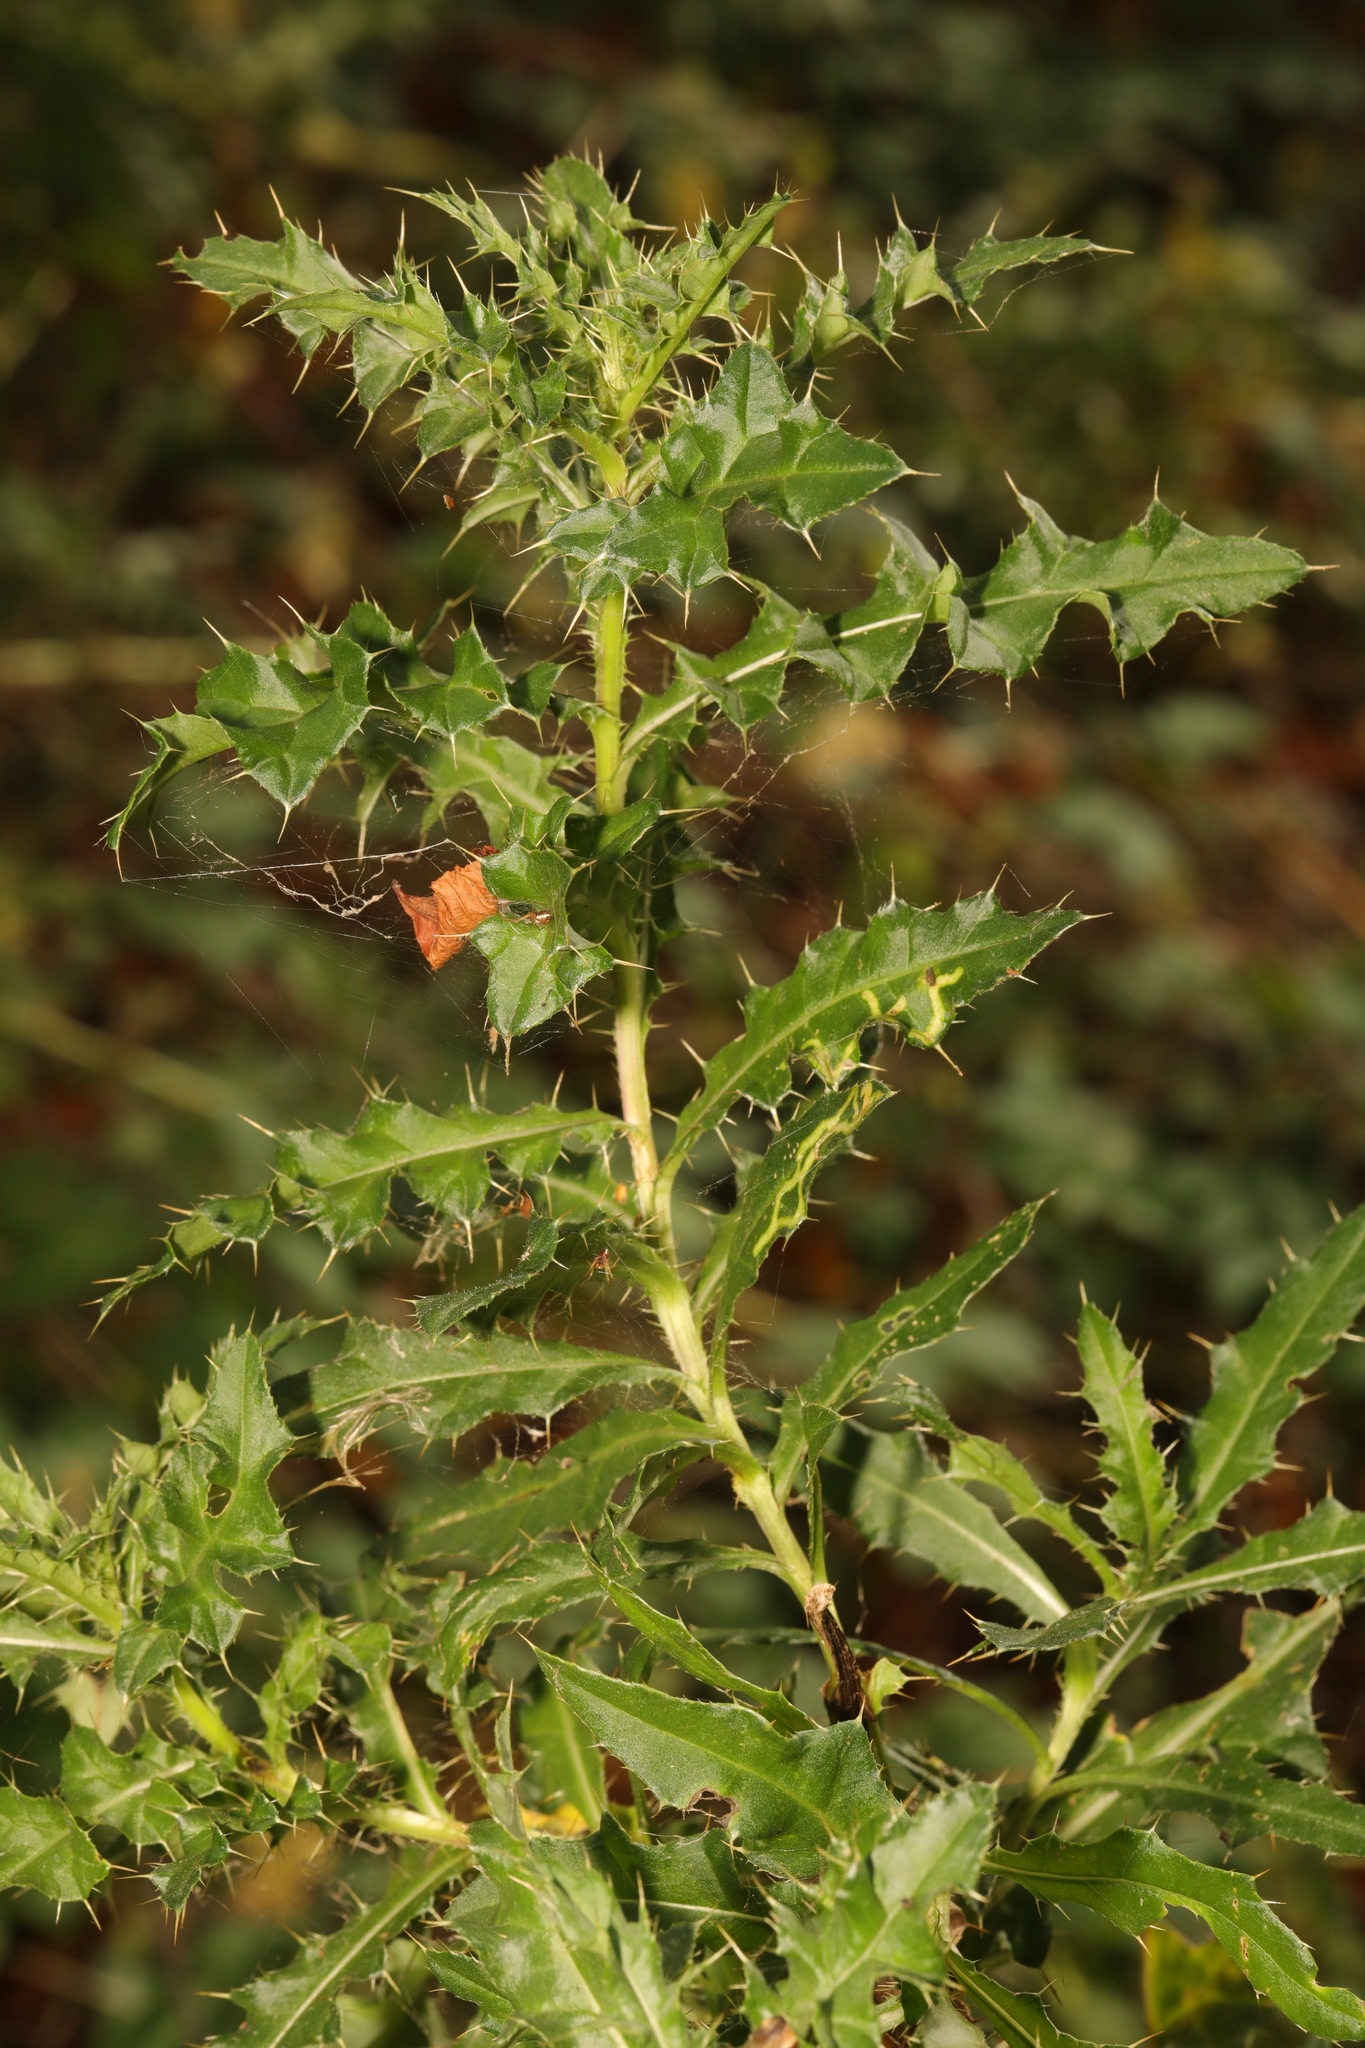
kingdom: Plantae
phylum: Tracheophyta
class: Magnoliopsida
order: Asterales
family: Asteraceae
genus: Cirsium
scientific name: Cirsium arvense
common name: Creeping thistle
